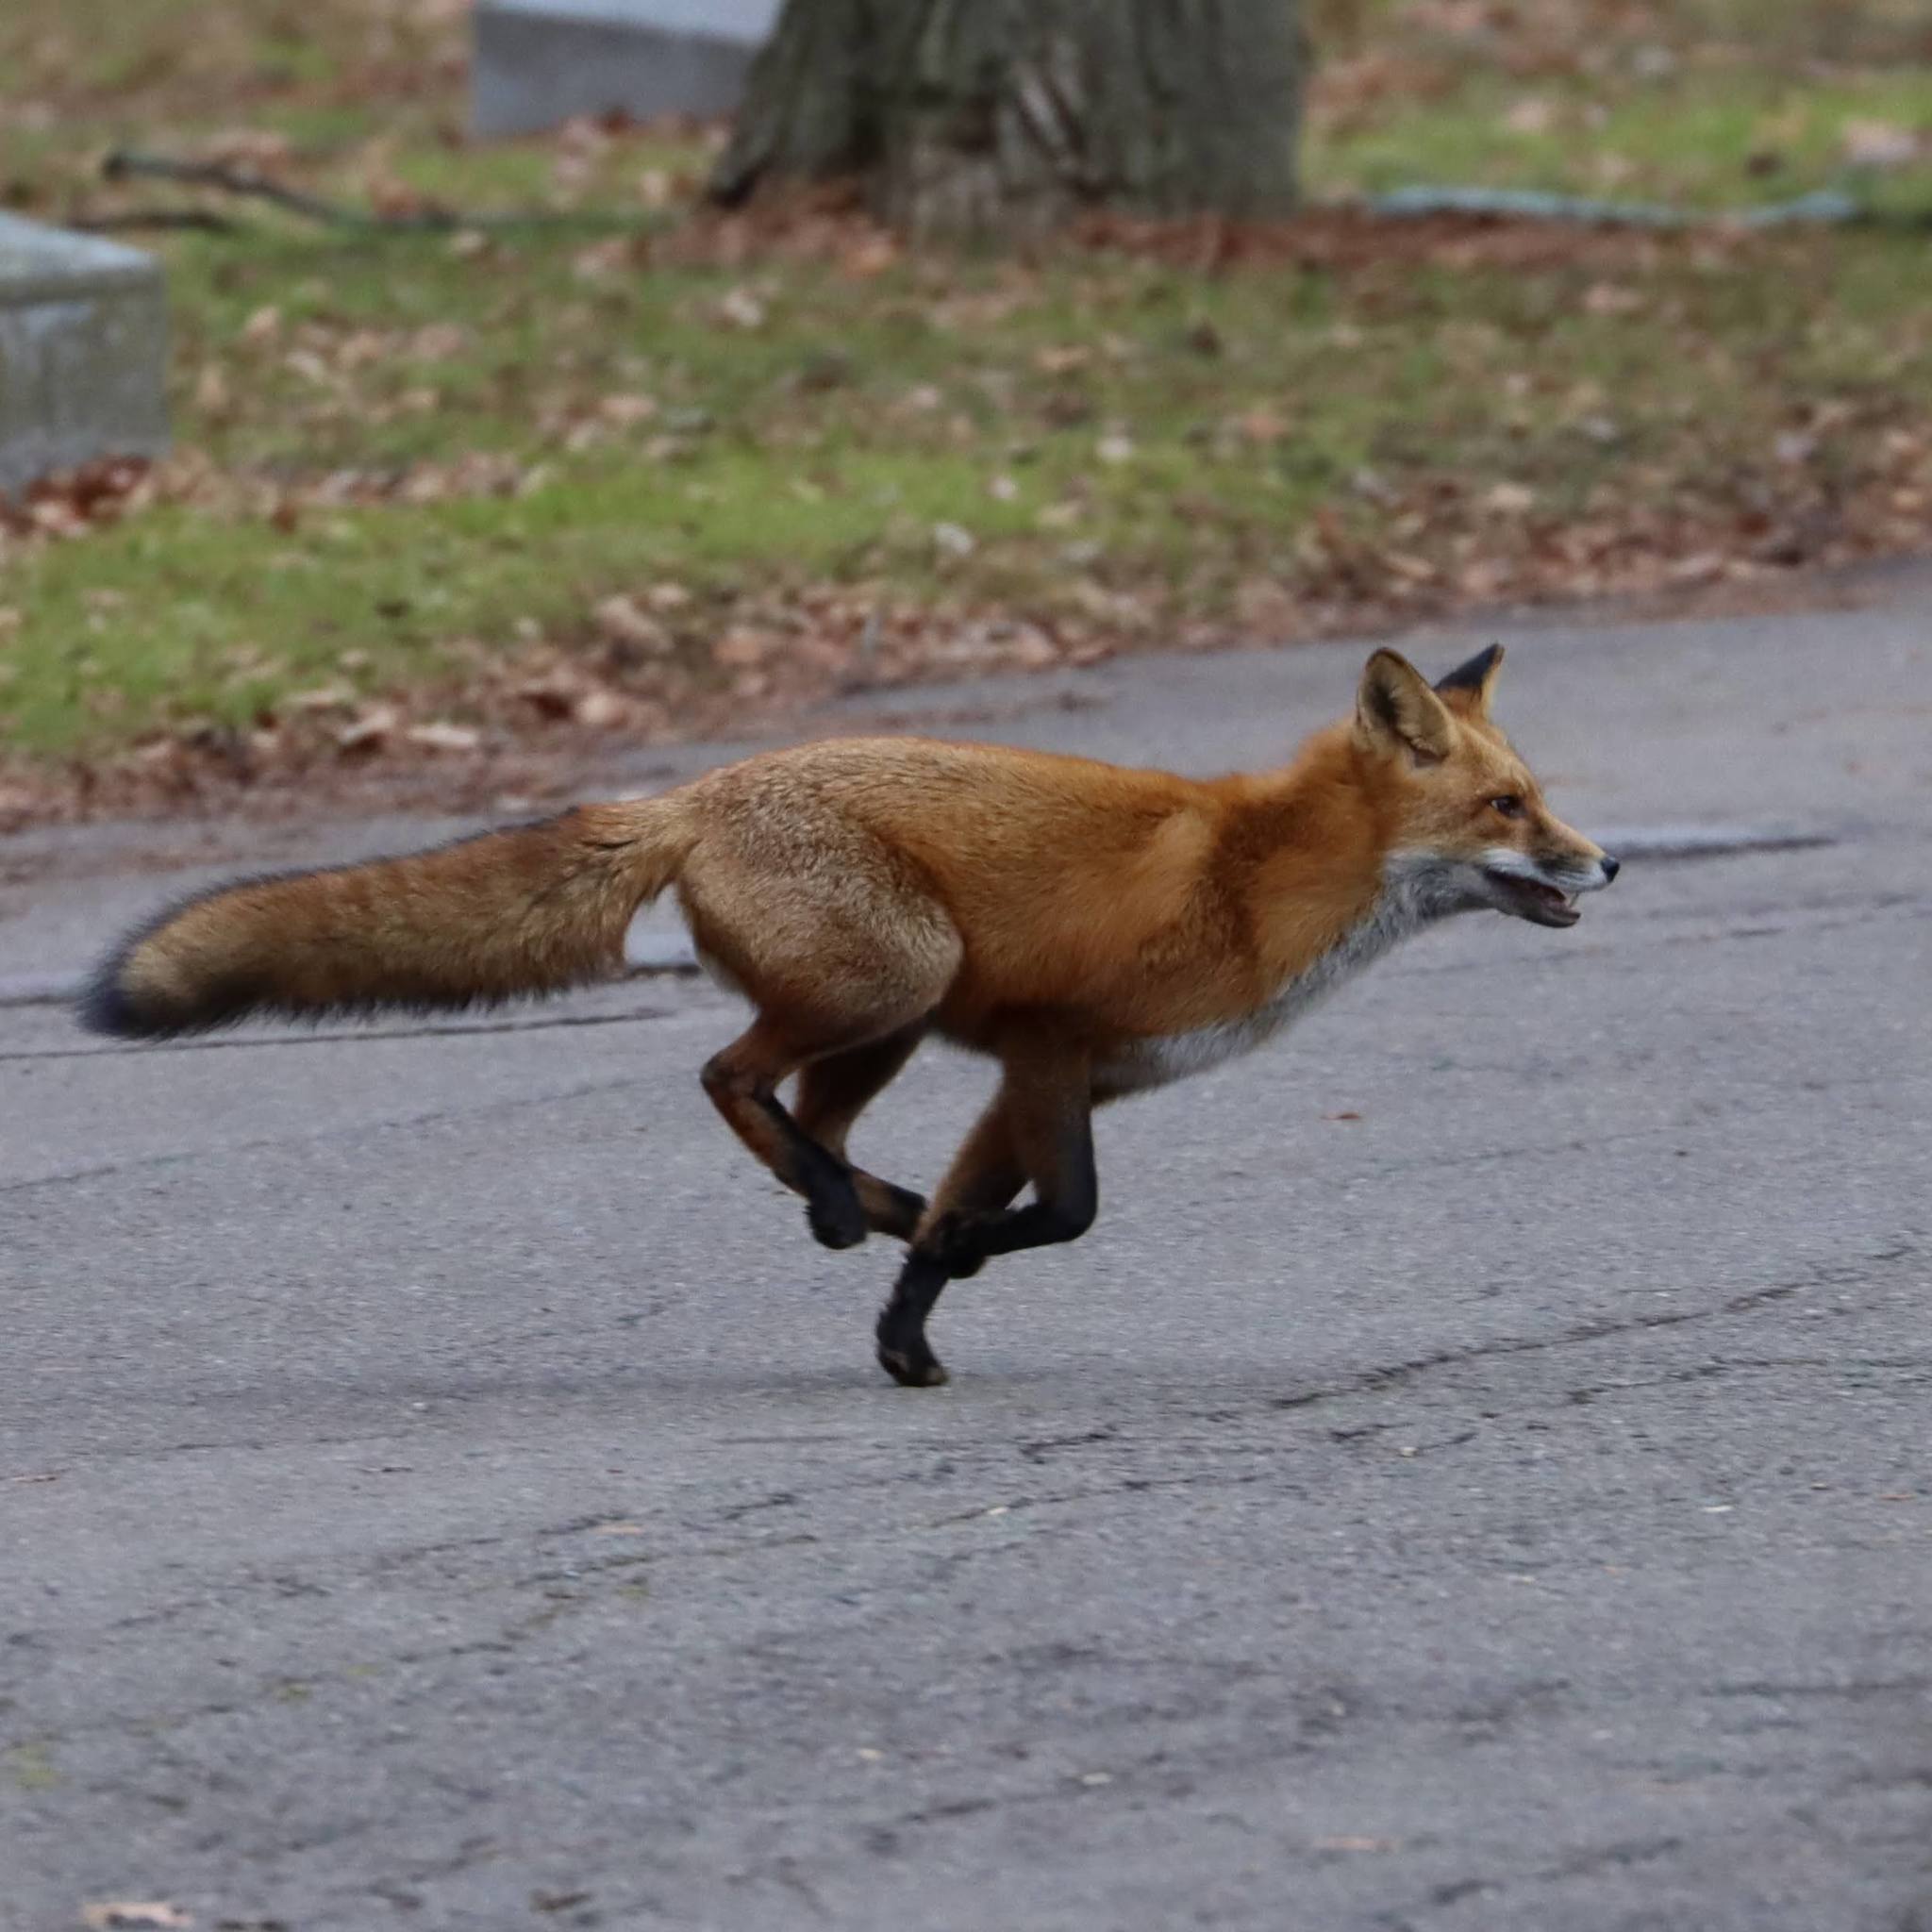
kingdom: Animalia
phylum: Chordata
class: Mammalia
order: Carnivora
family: Canidae
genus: Vulpes
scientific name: Vulpes vulpes
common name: Red fox
